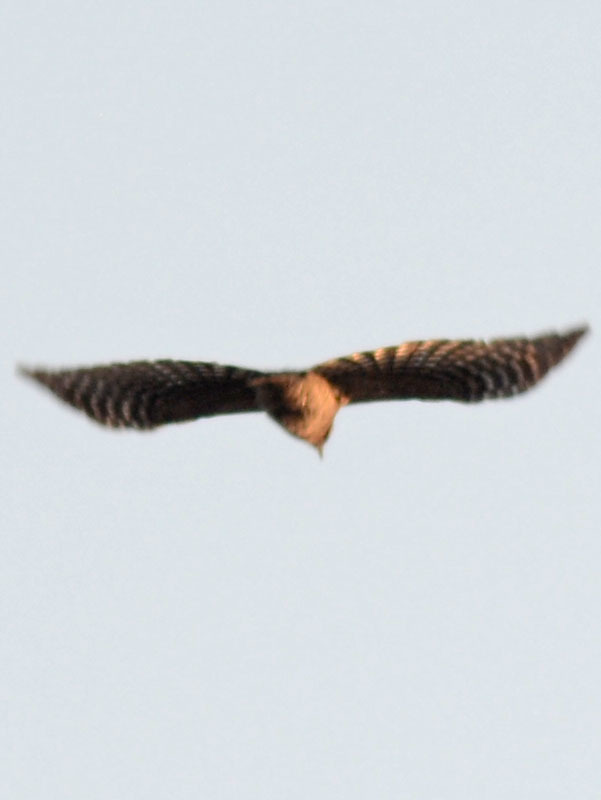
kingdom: Animalia
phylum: Chordata
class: Aves
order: Piciformes
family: Picidae
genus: Dryobates
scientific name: Dryobates scalaris
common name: Ladder-backed woodpecker
